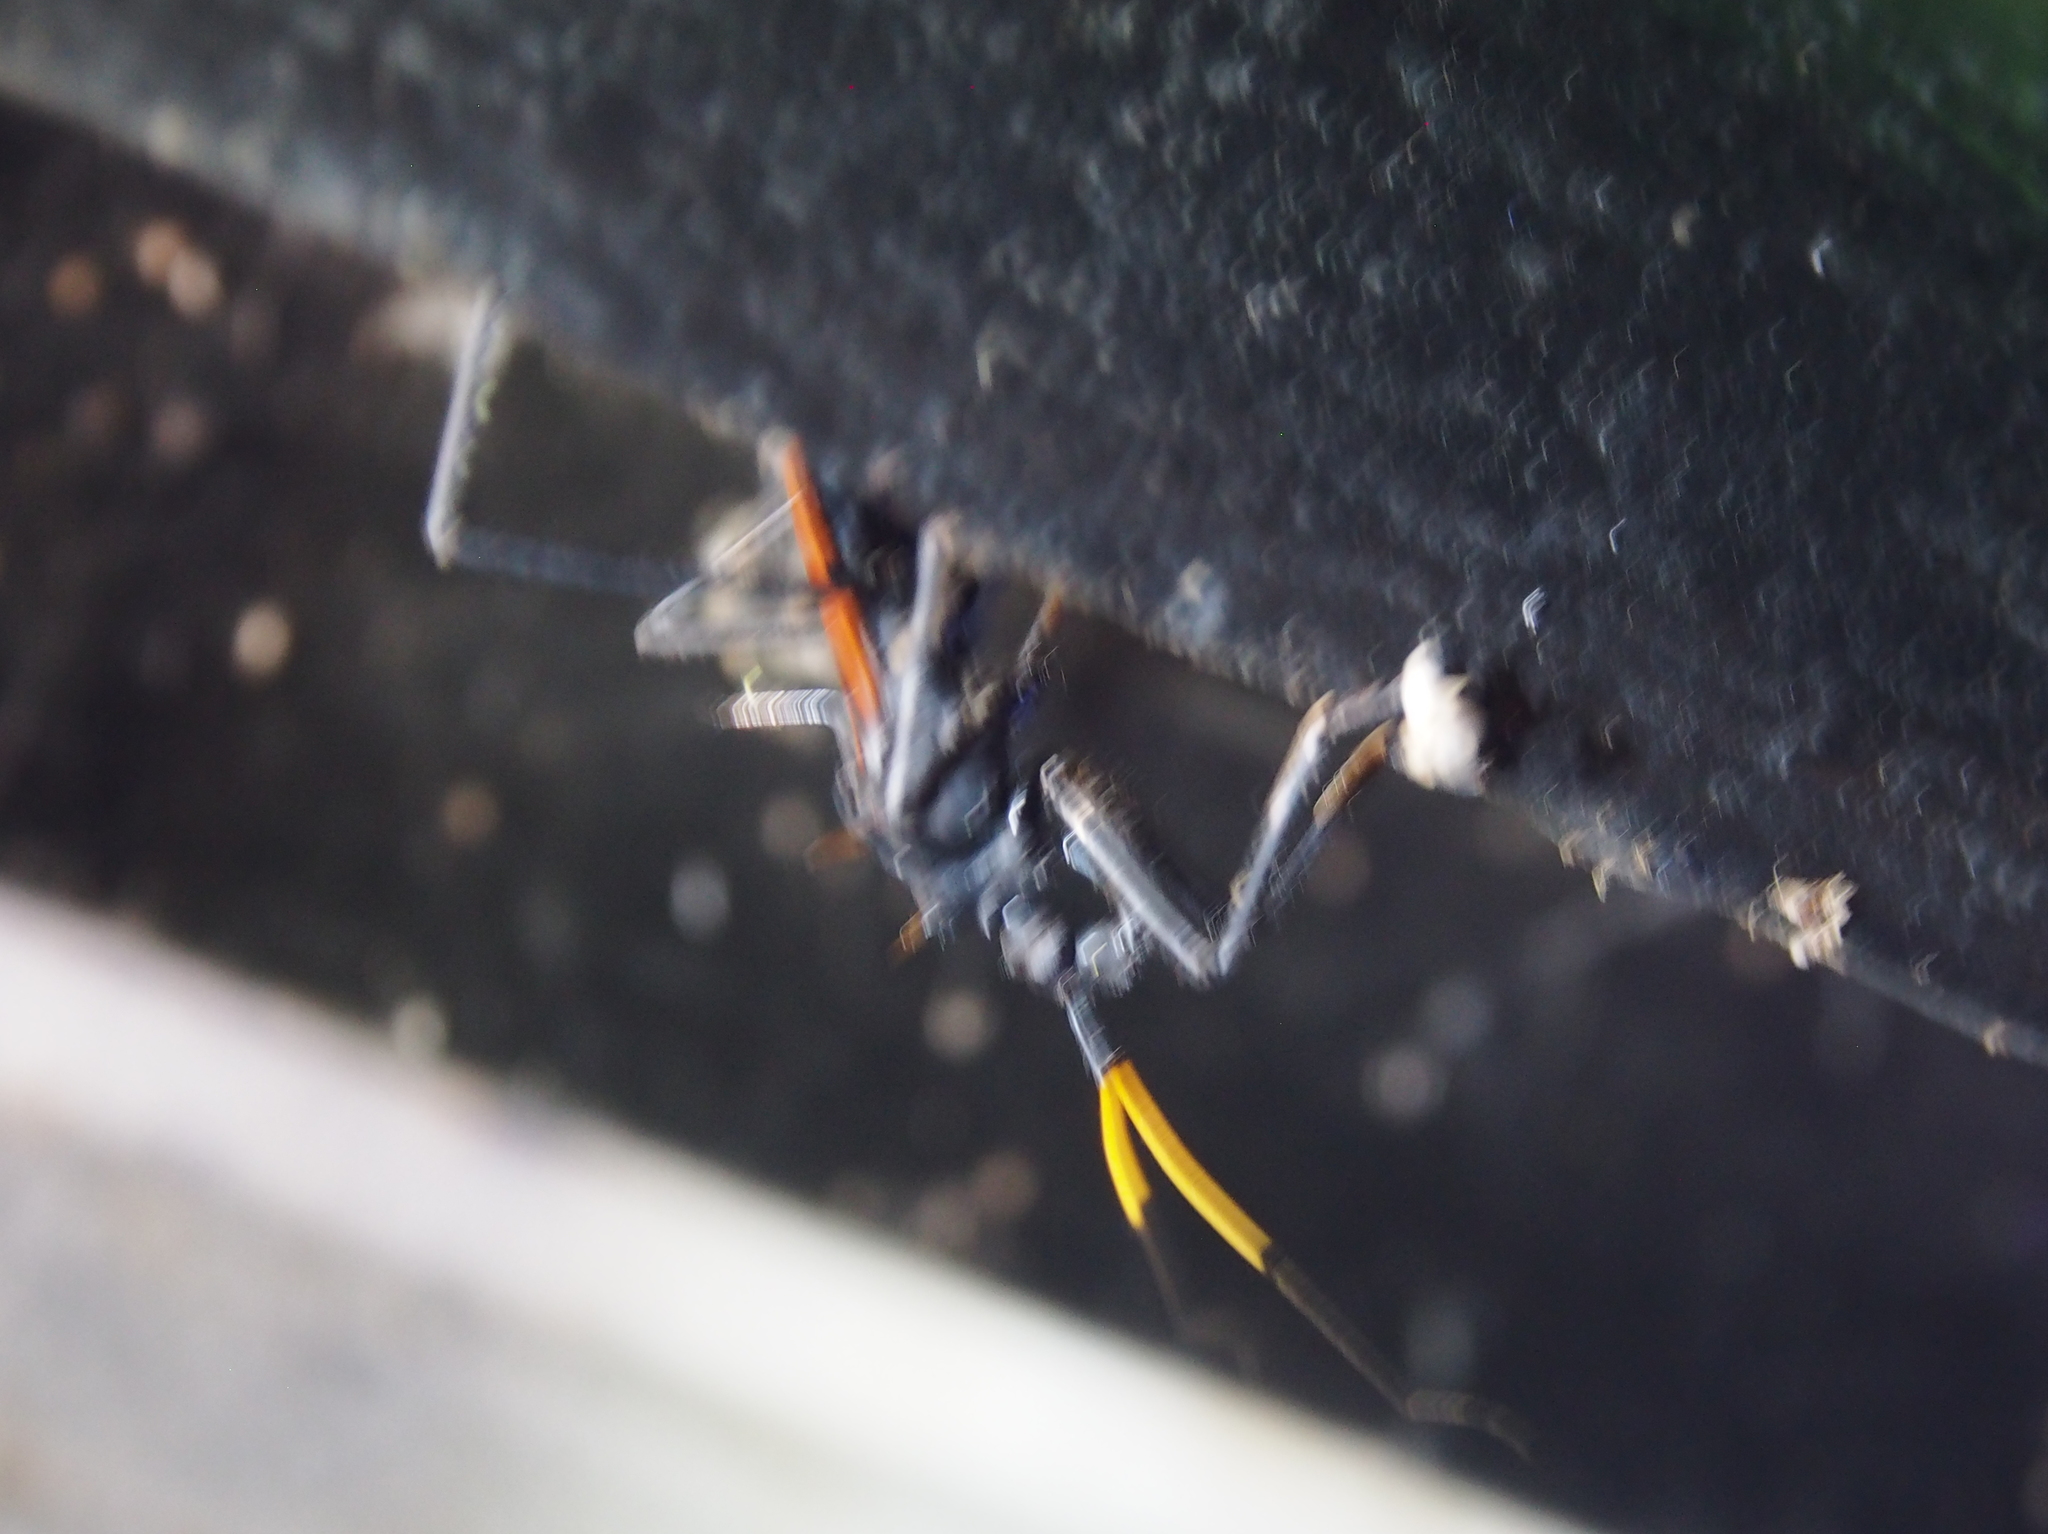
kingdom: Animalia
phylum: Arthropoda
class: Insecta
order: Hemiptera
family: Reduviidae
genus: Zelurus
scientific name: Zelurus spinidorsis
